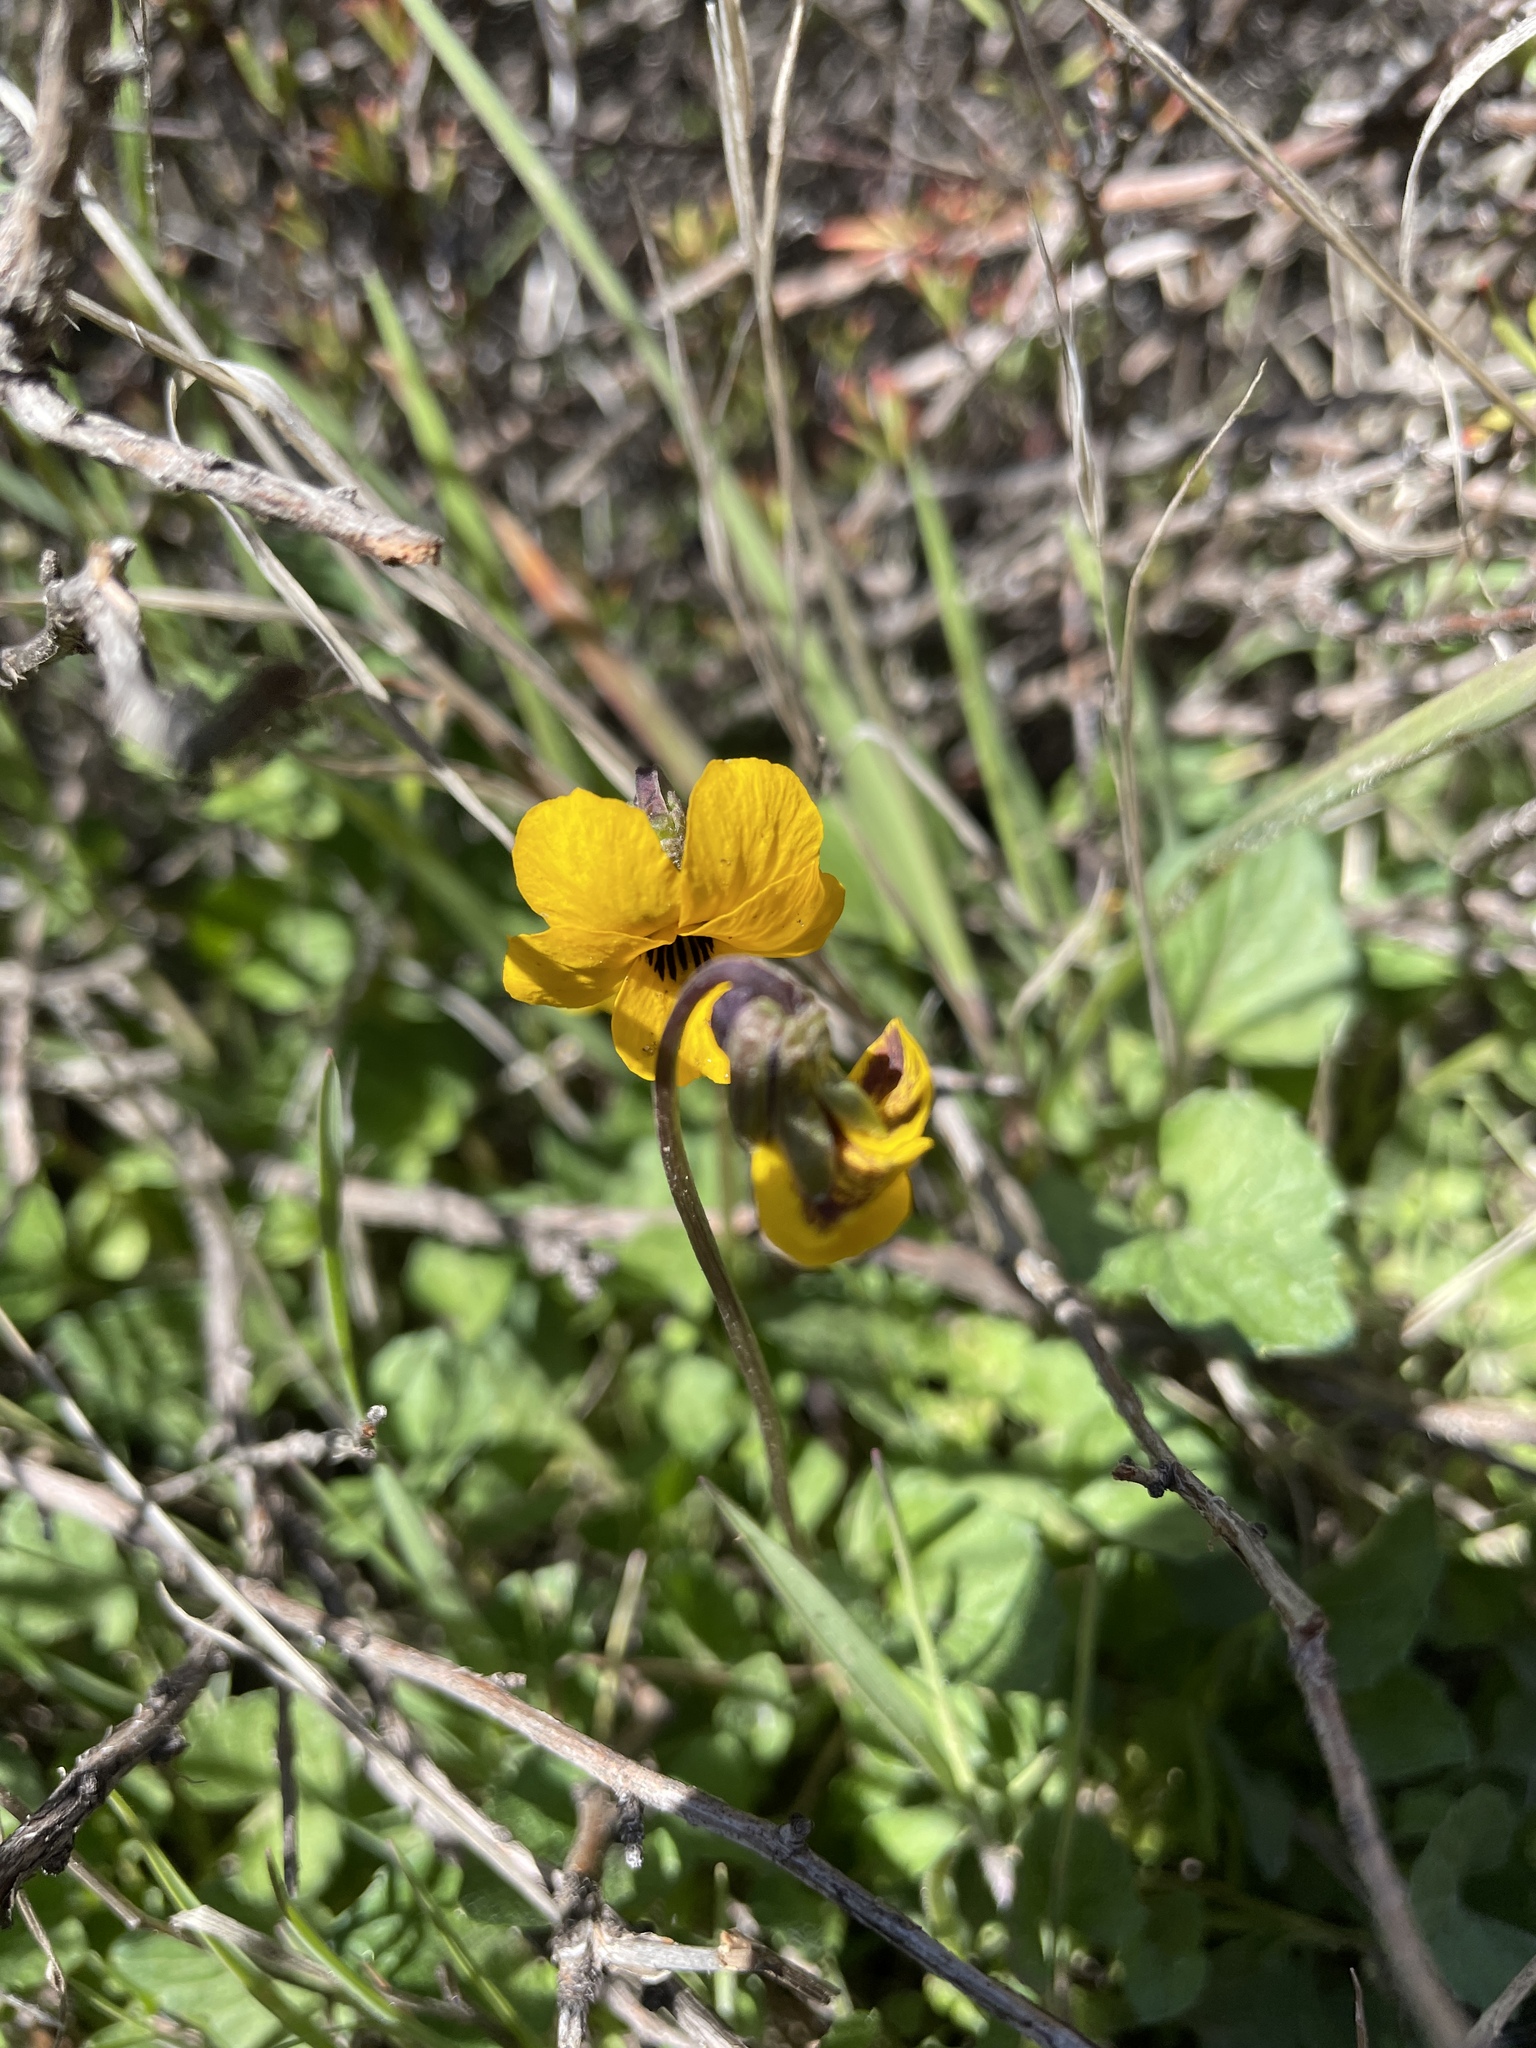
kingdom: Plantae
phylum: Tracheophyta
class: Magnoliopsida
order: Malpighiales
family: Violaceae
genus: Viola
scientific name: Viola pedunculata
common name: California golden violet
